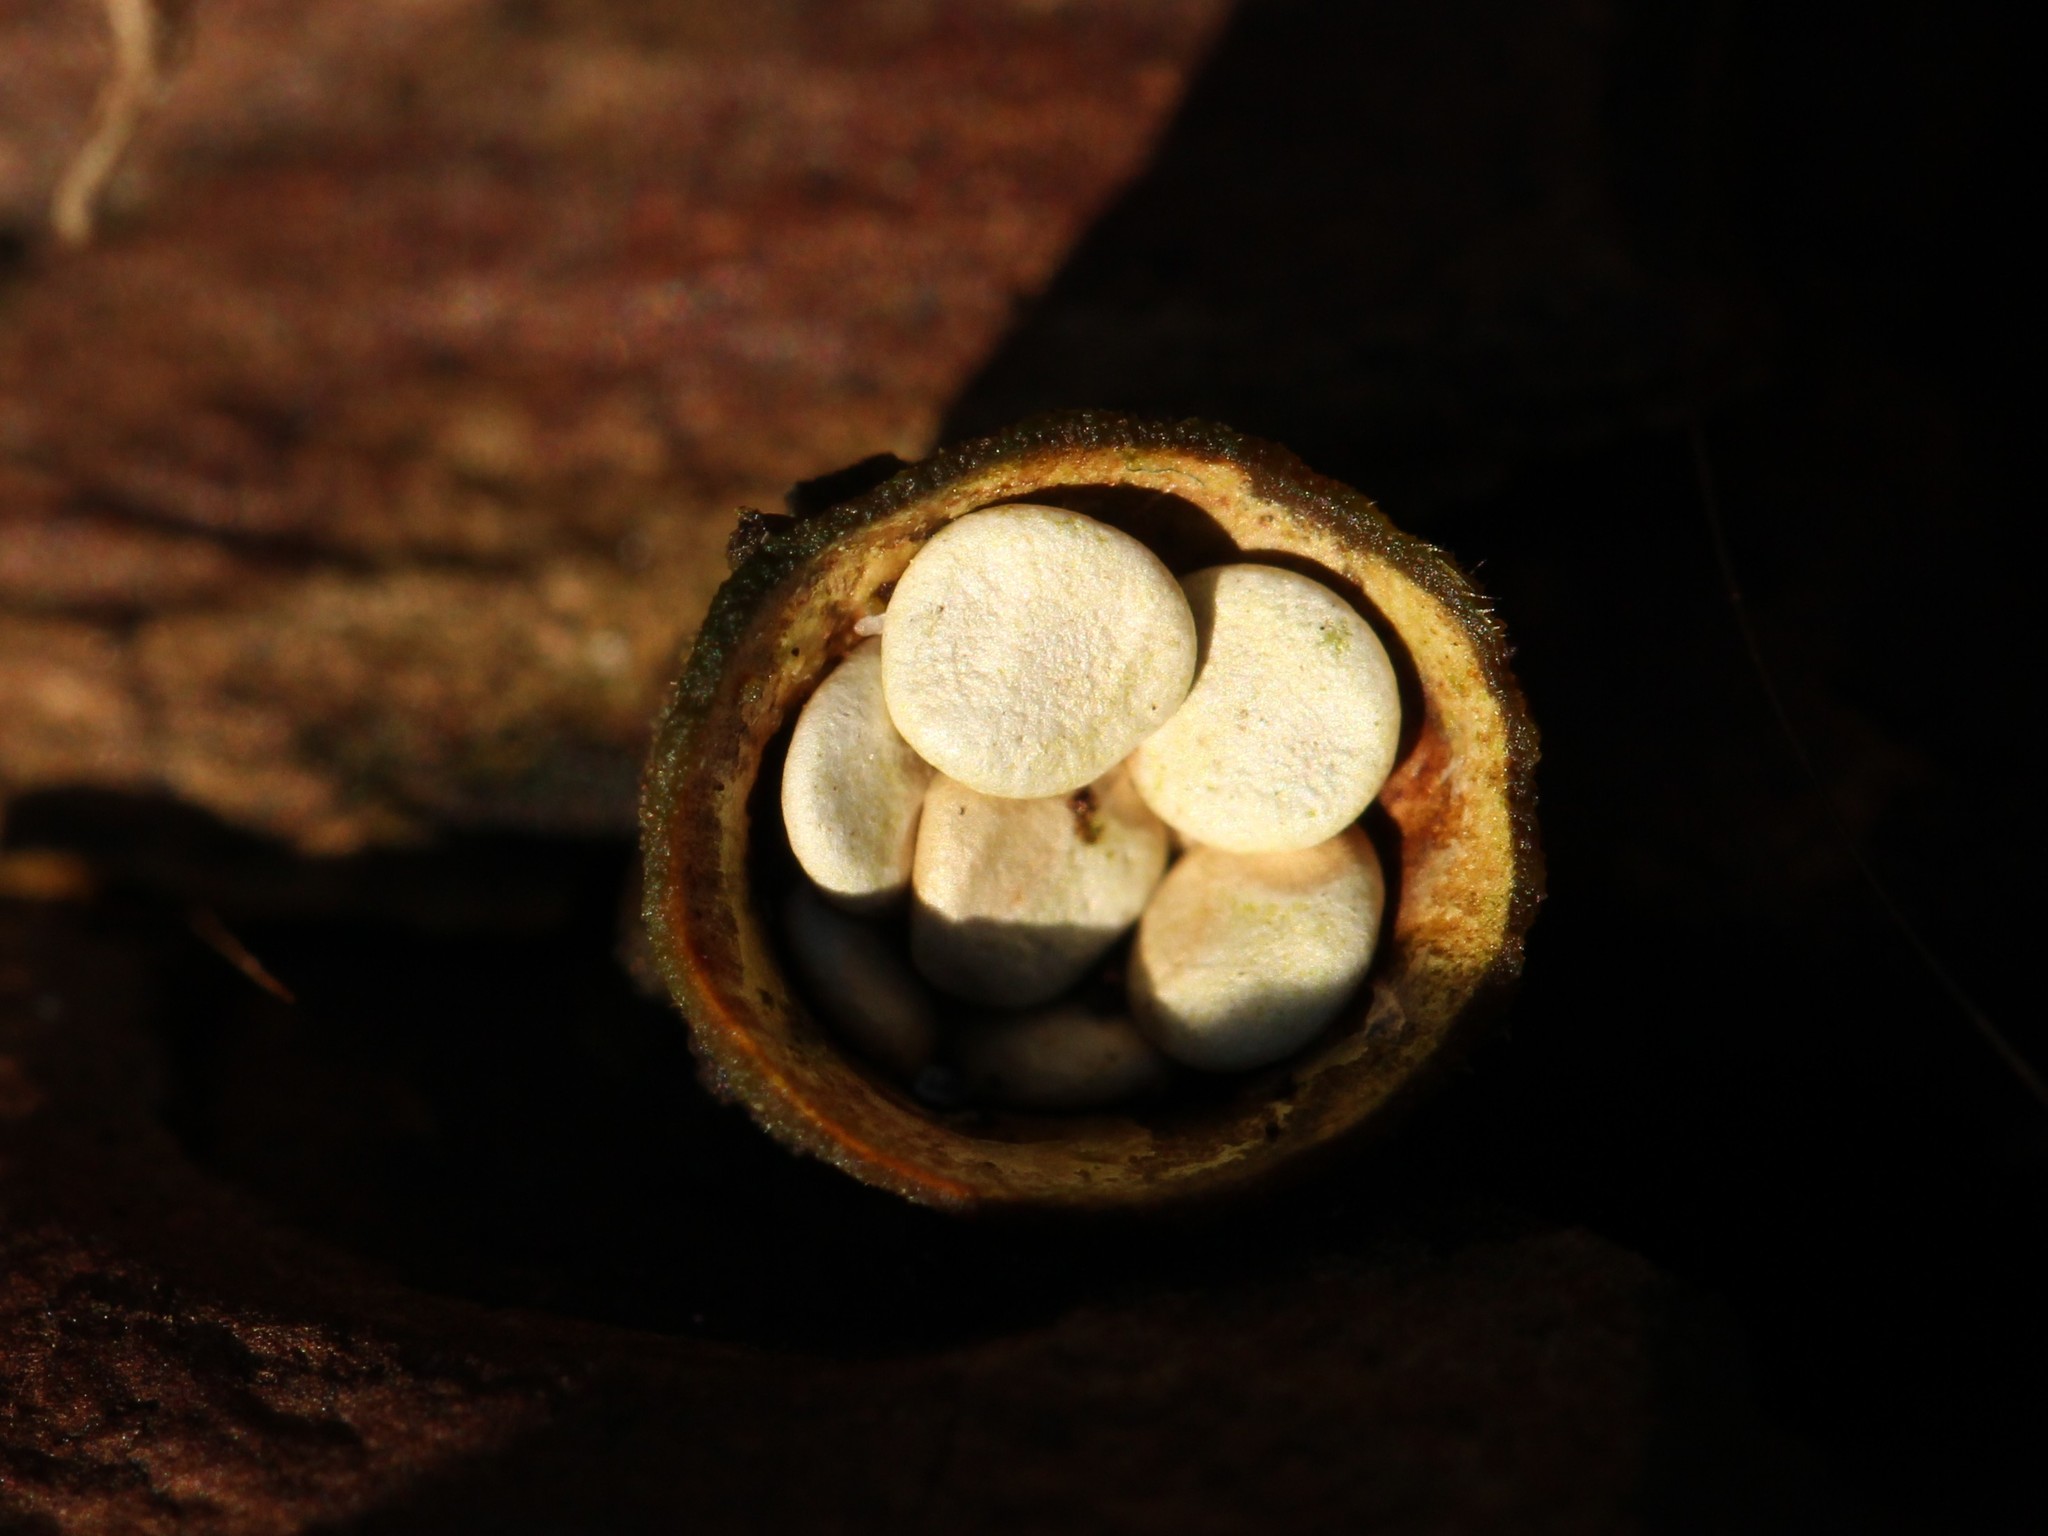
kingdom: Fungi
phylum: Basidiomycota
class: Agaricomycetes
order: Agaricales
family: Nidulariaceae
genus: Crucibulum
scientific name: Crucibulum laeve
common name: Common bird's nest
